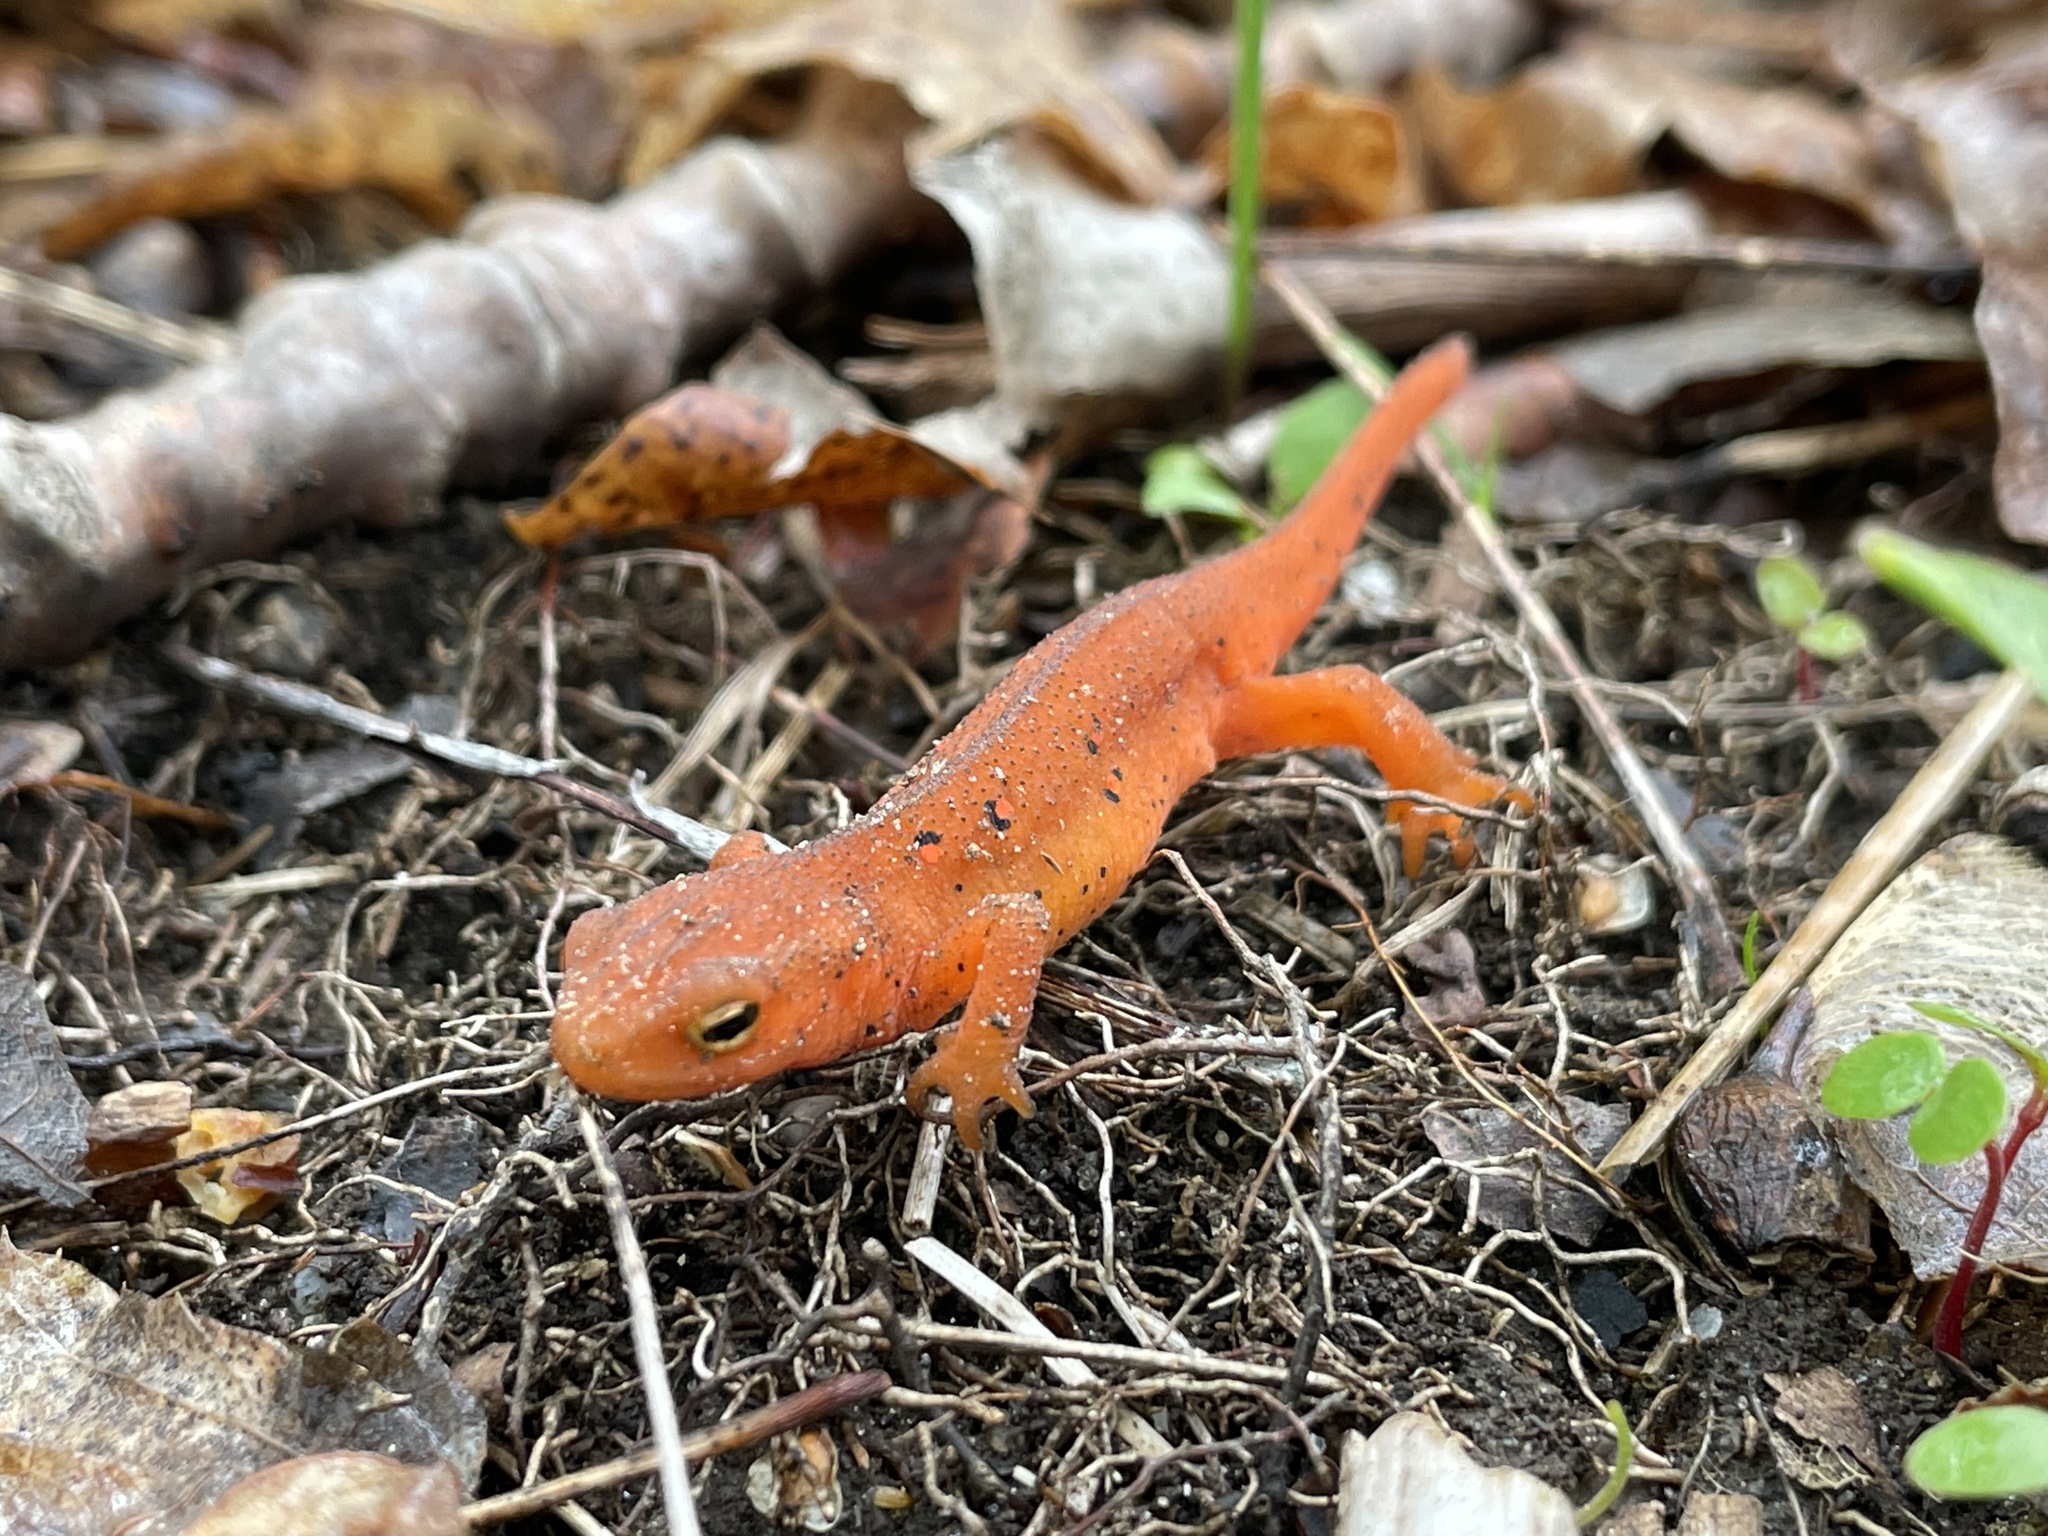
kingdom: Animalia
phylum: Chordata
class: Amphibia
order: Caudata
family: Salamandridae
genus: Notophthalmus
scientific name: Notophthalmus viridescens
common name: Eastern newt
